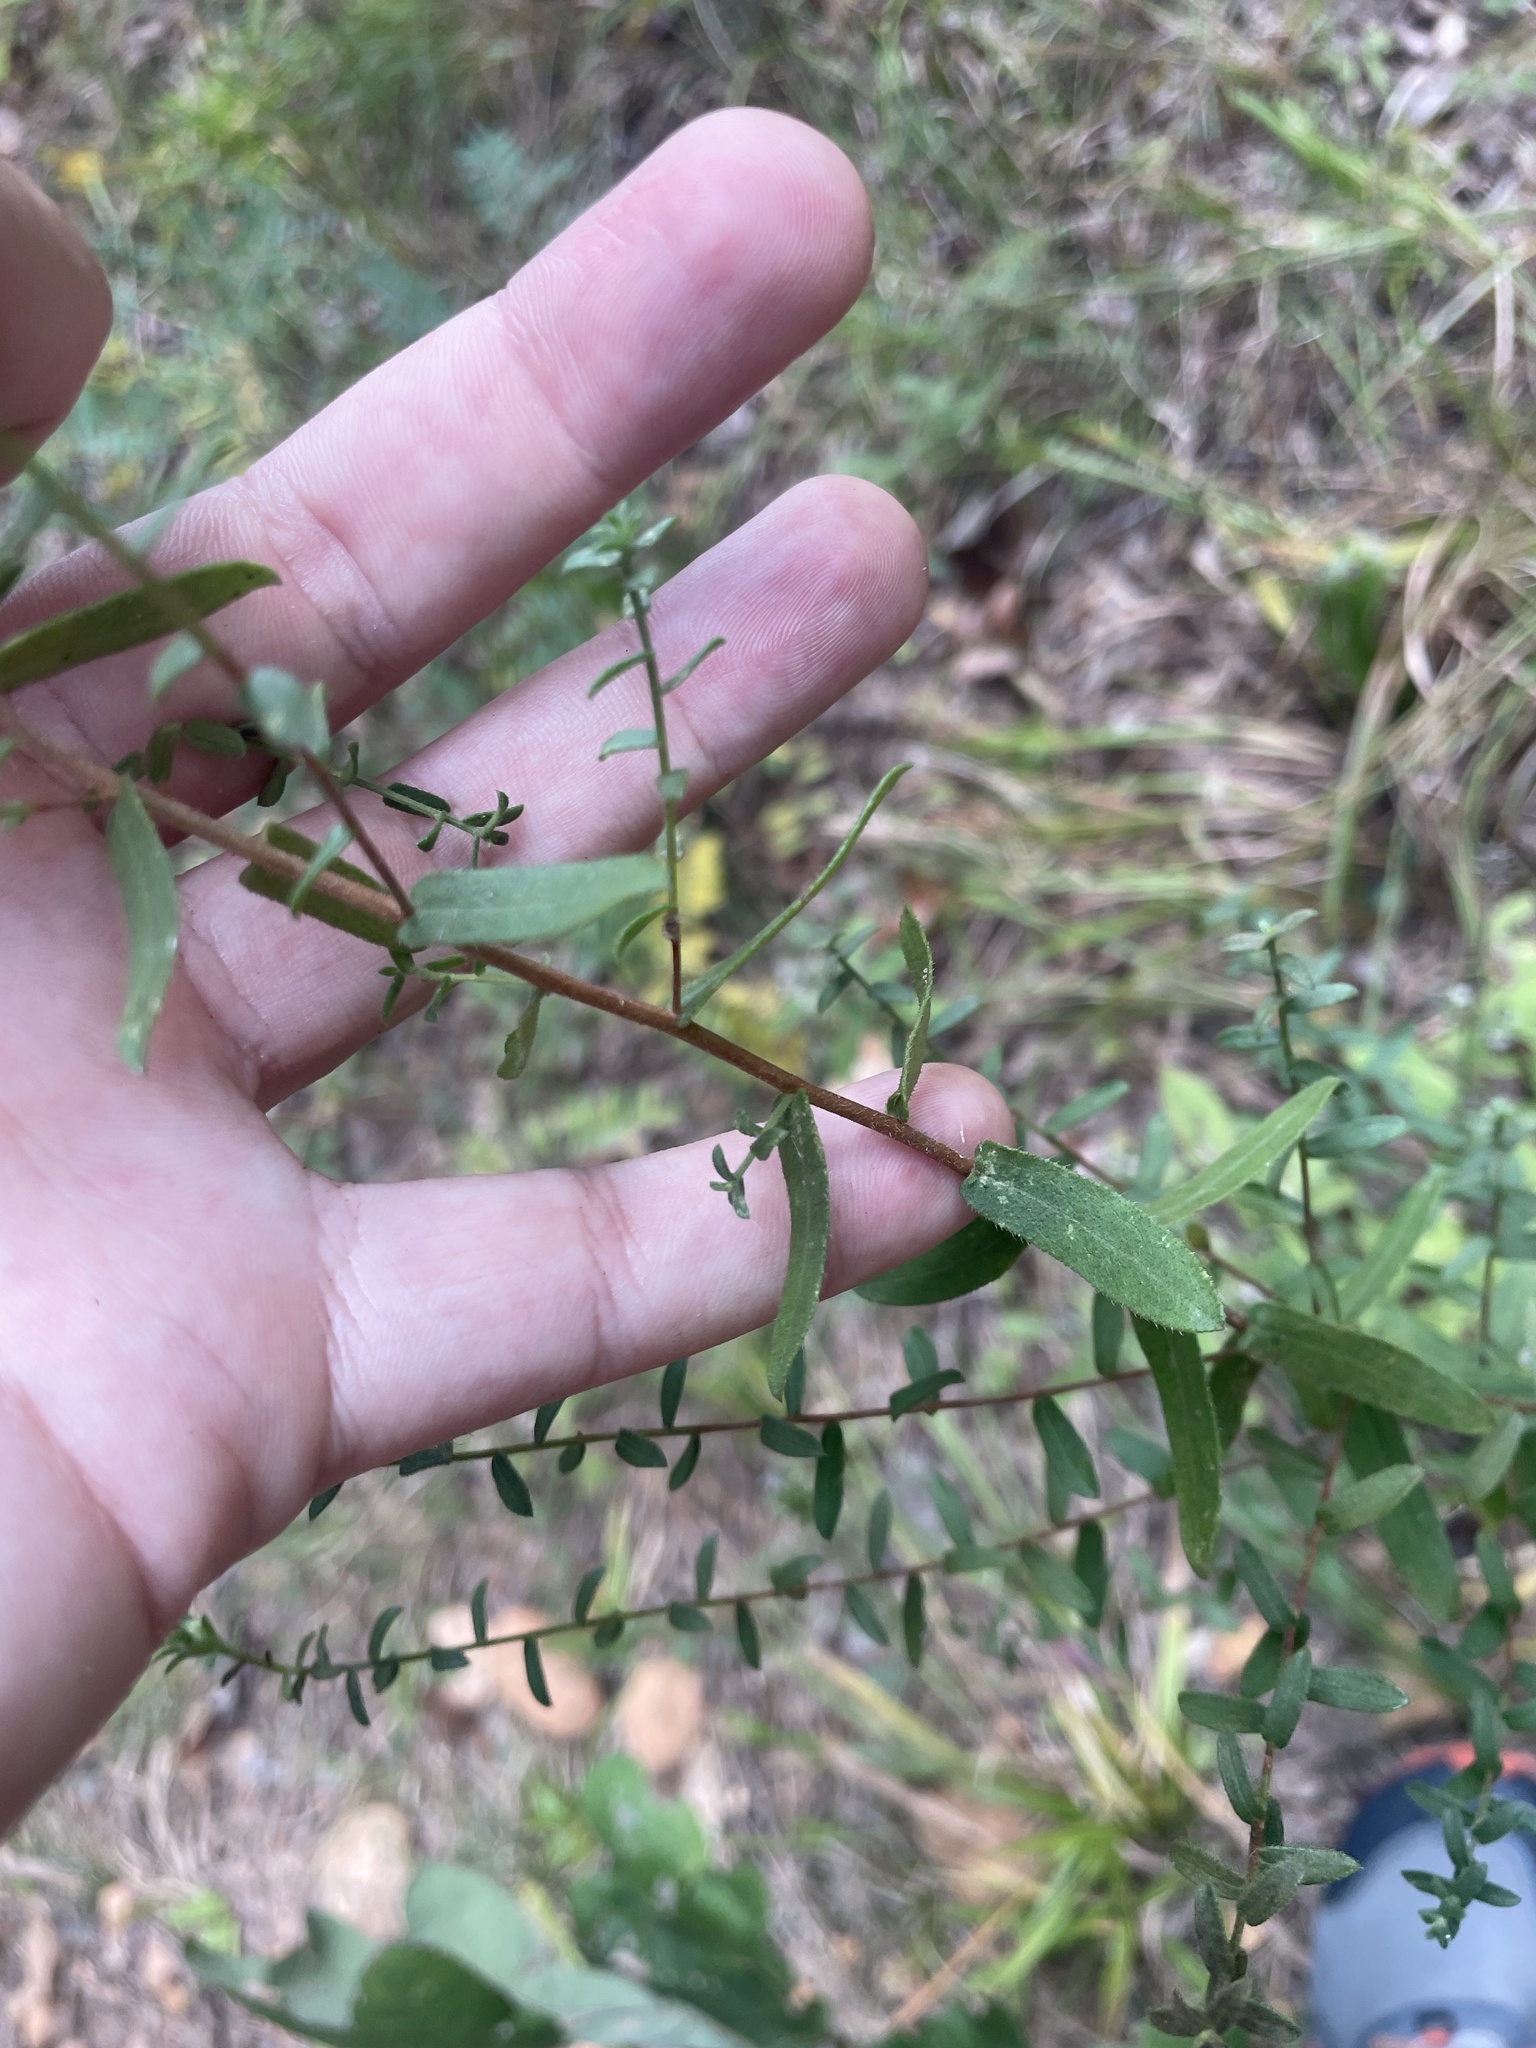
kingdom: Plantae
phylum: Tracheophyta
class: Magnoliopsida
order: Asterales
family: Asteraceae
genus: Symphyotrichum
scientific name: Symphyotrichum grandiflorum
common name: Big-head aster
